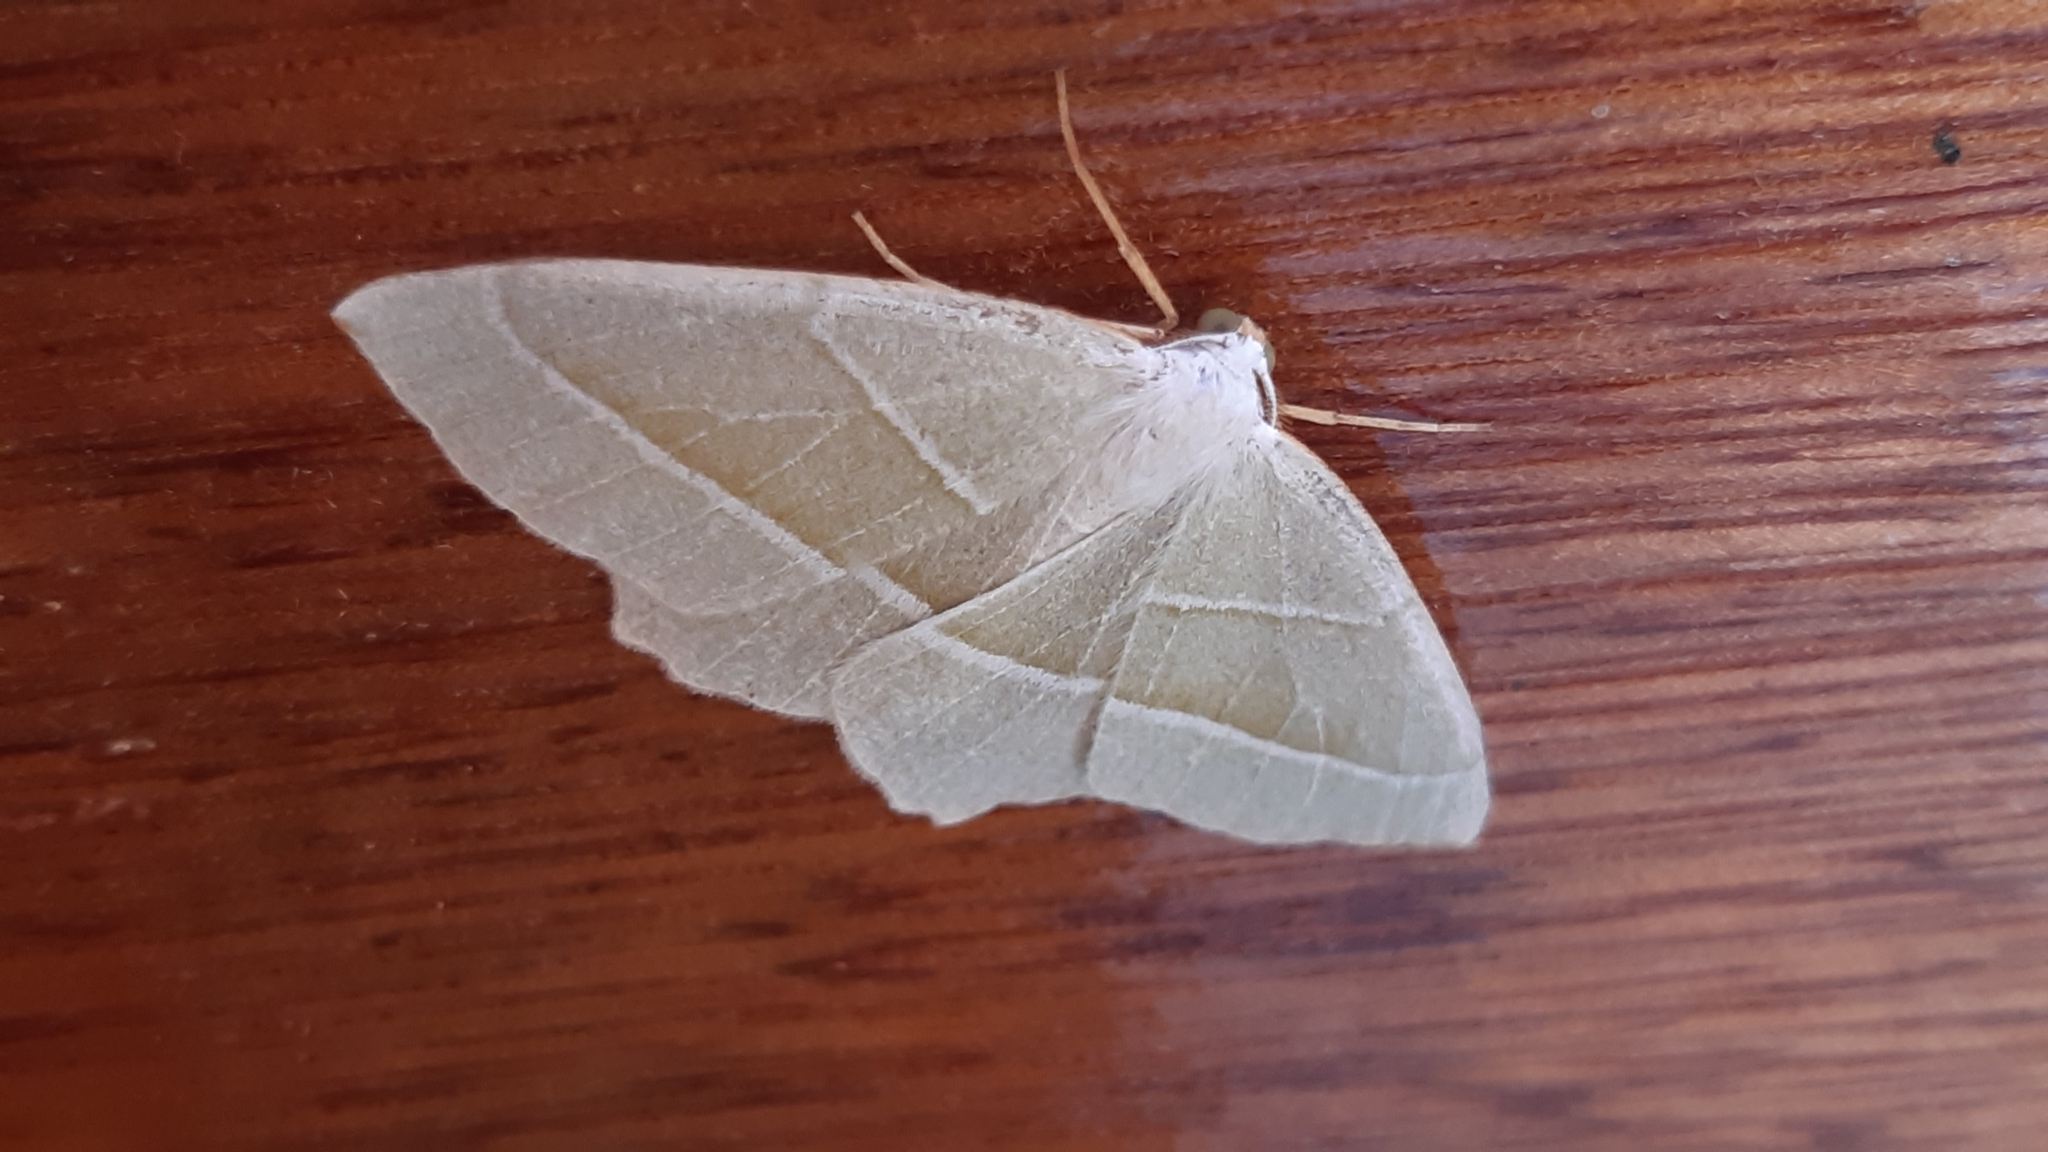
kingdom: Animalia
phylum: Arthropoda
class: Insecta
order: Lepidoptera
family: Geometridae
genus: Campaea
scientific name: Campaea margaritaria
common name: Light emerald
